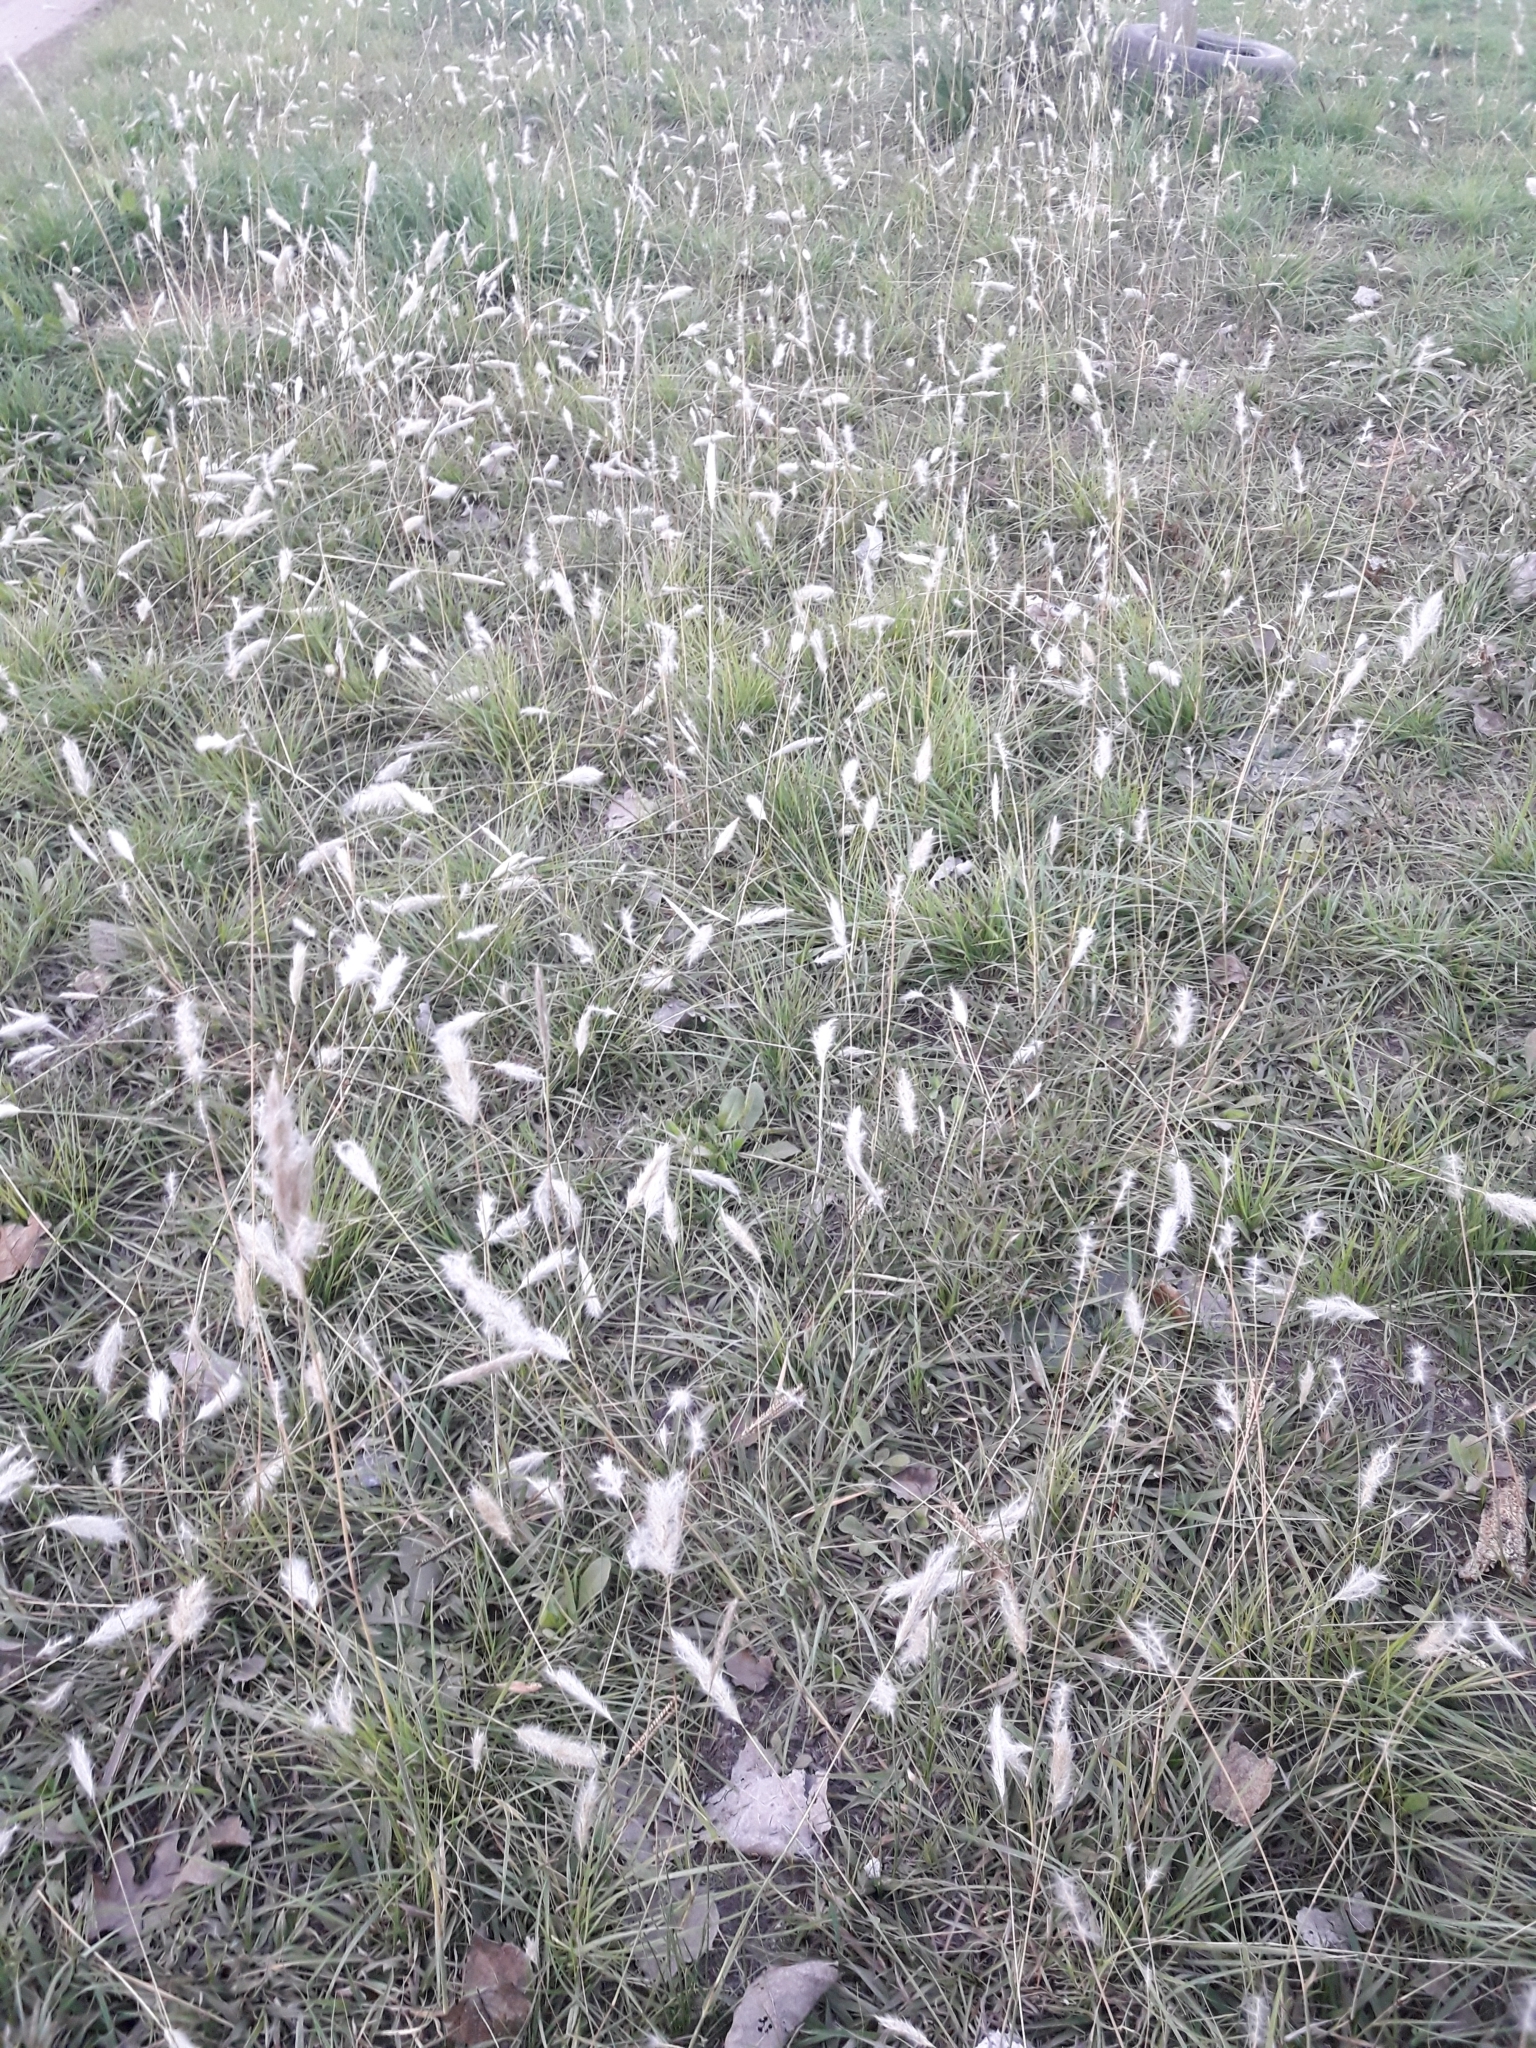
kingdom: Plantae
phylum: Tracheophyta
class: Liliopsida
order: Poales
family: Poaceae
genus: Bothriochloa
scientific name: Bothriochloa laguroides
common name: Silver bluestem
